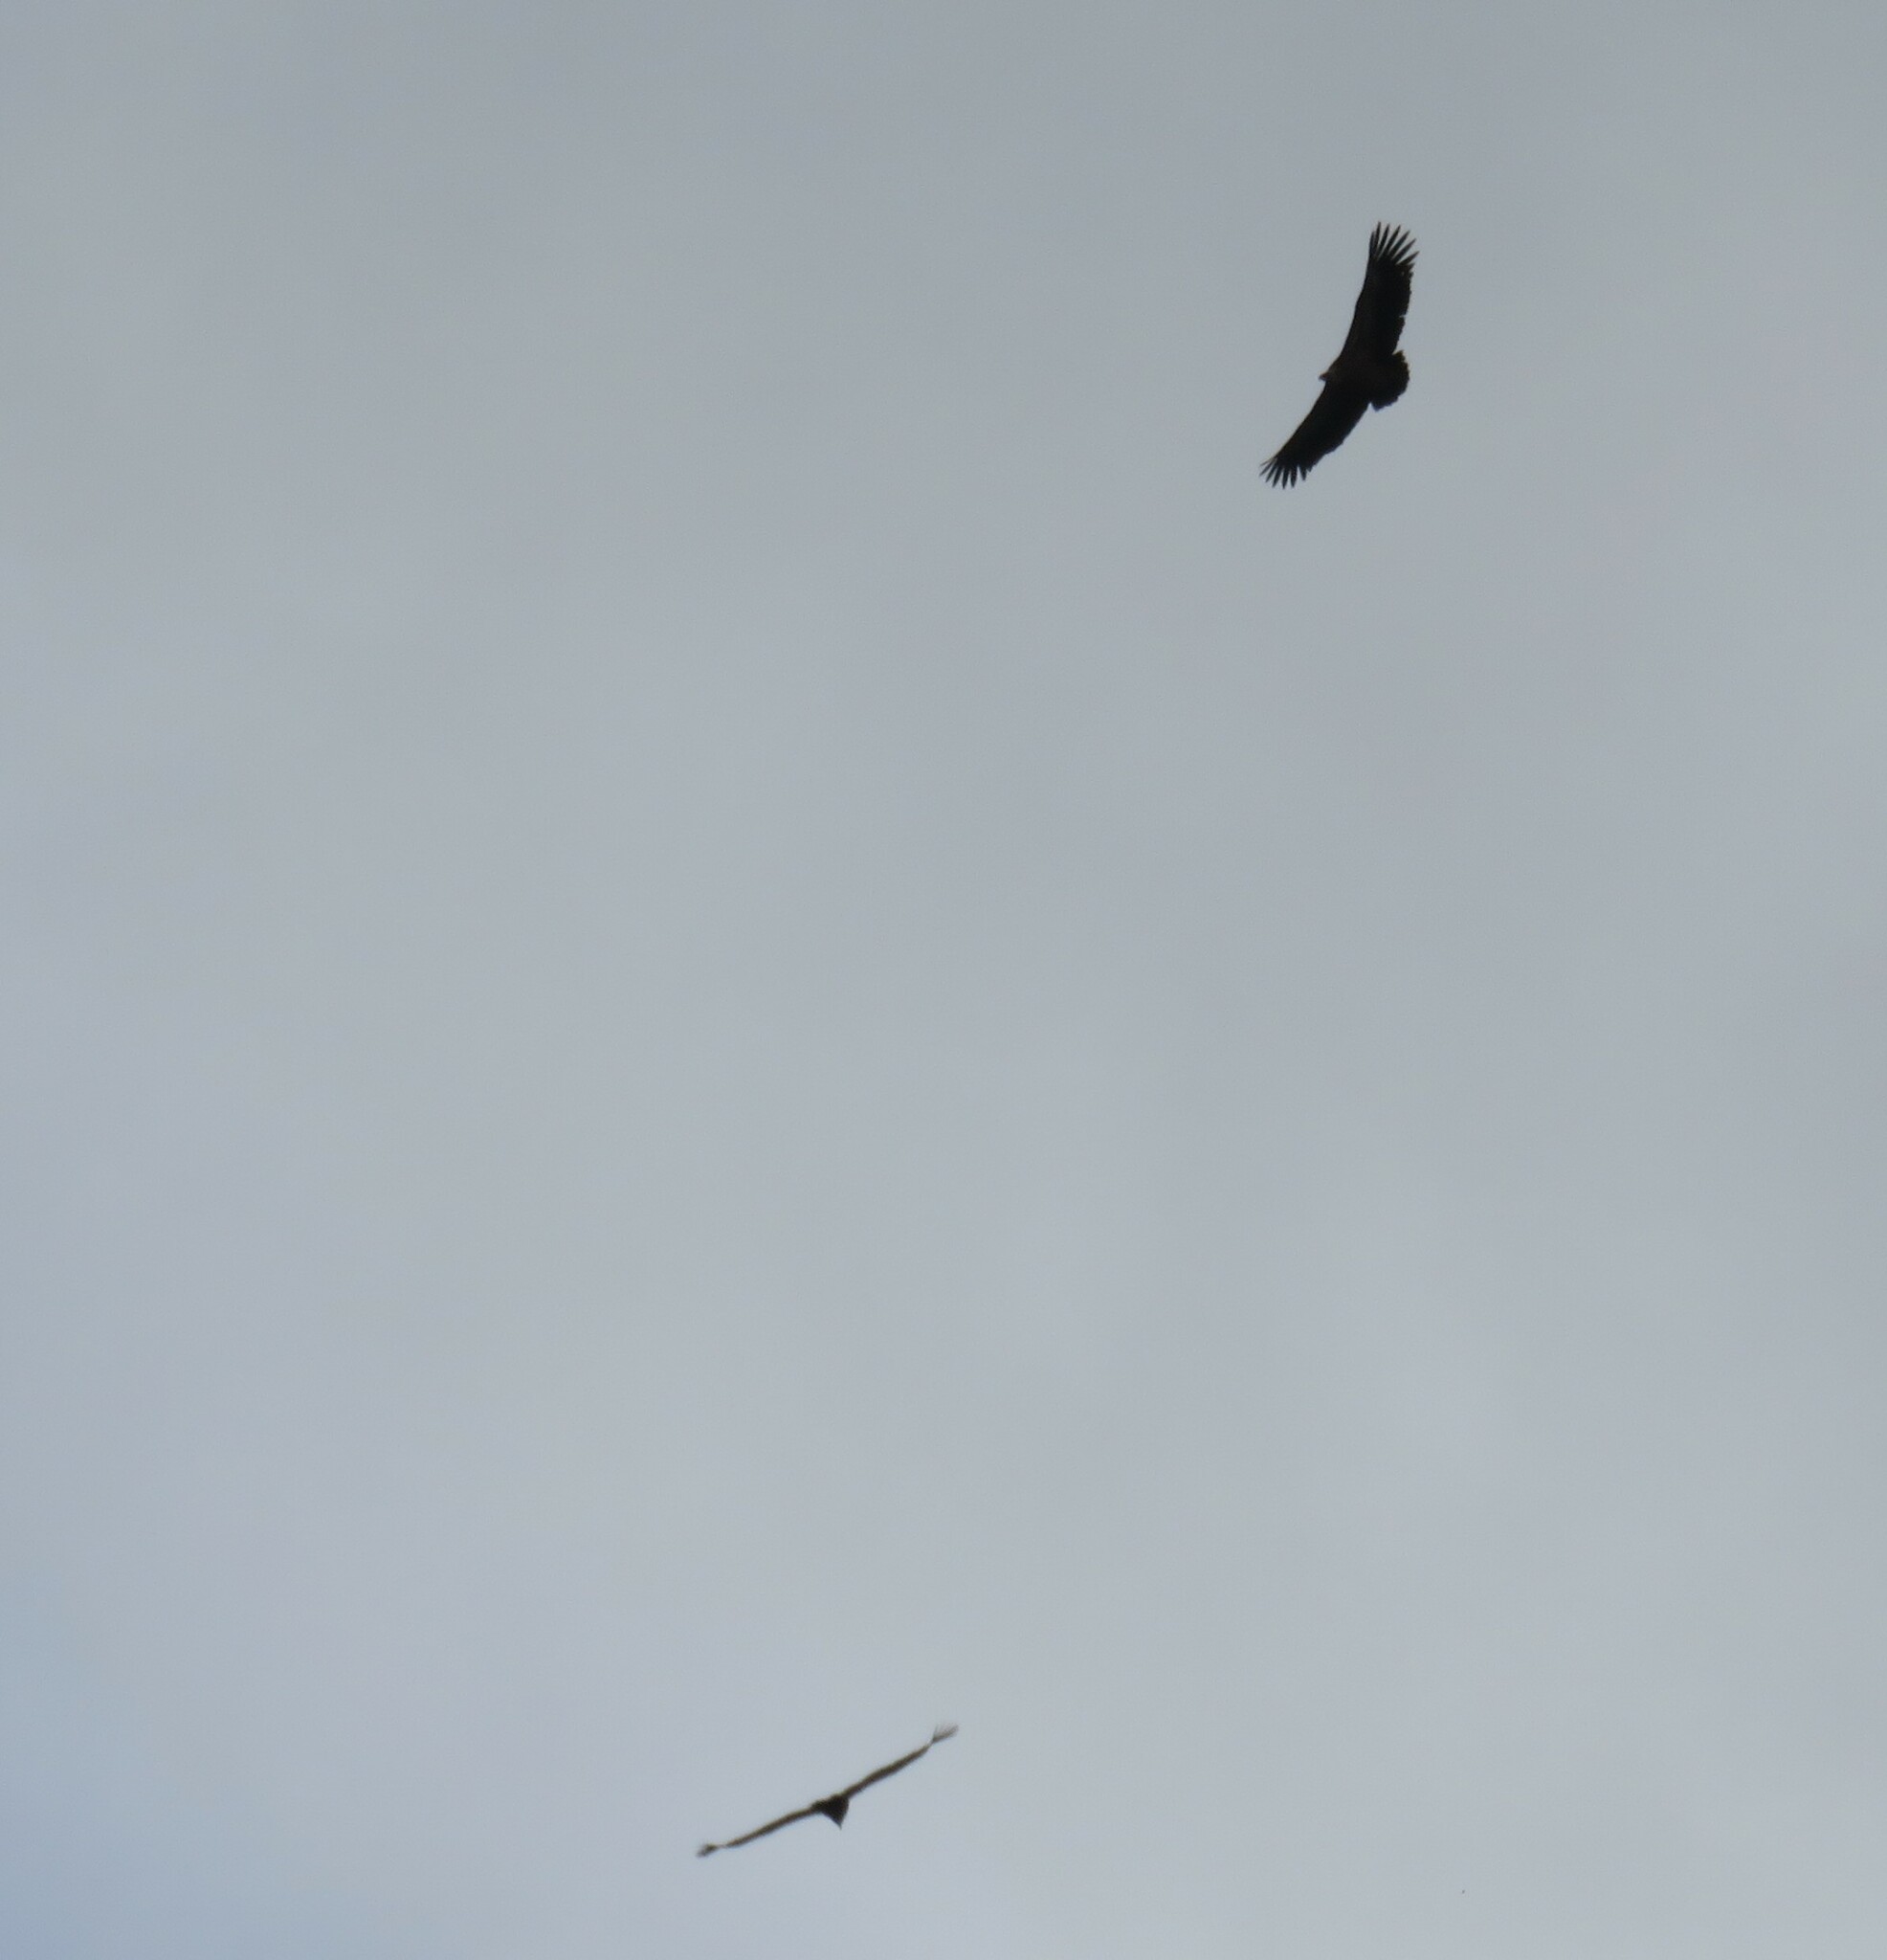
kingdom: Animalia
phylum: Chordata
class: Aves
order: Accipitriformes
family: Accipitridae
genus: Gyps
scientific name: Gyps fulvus
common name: Griffon vulture
